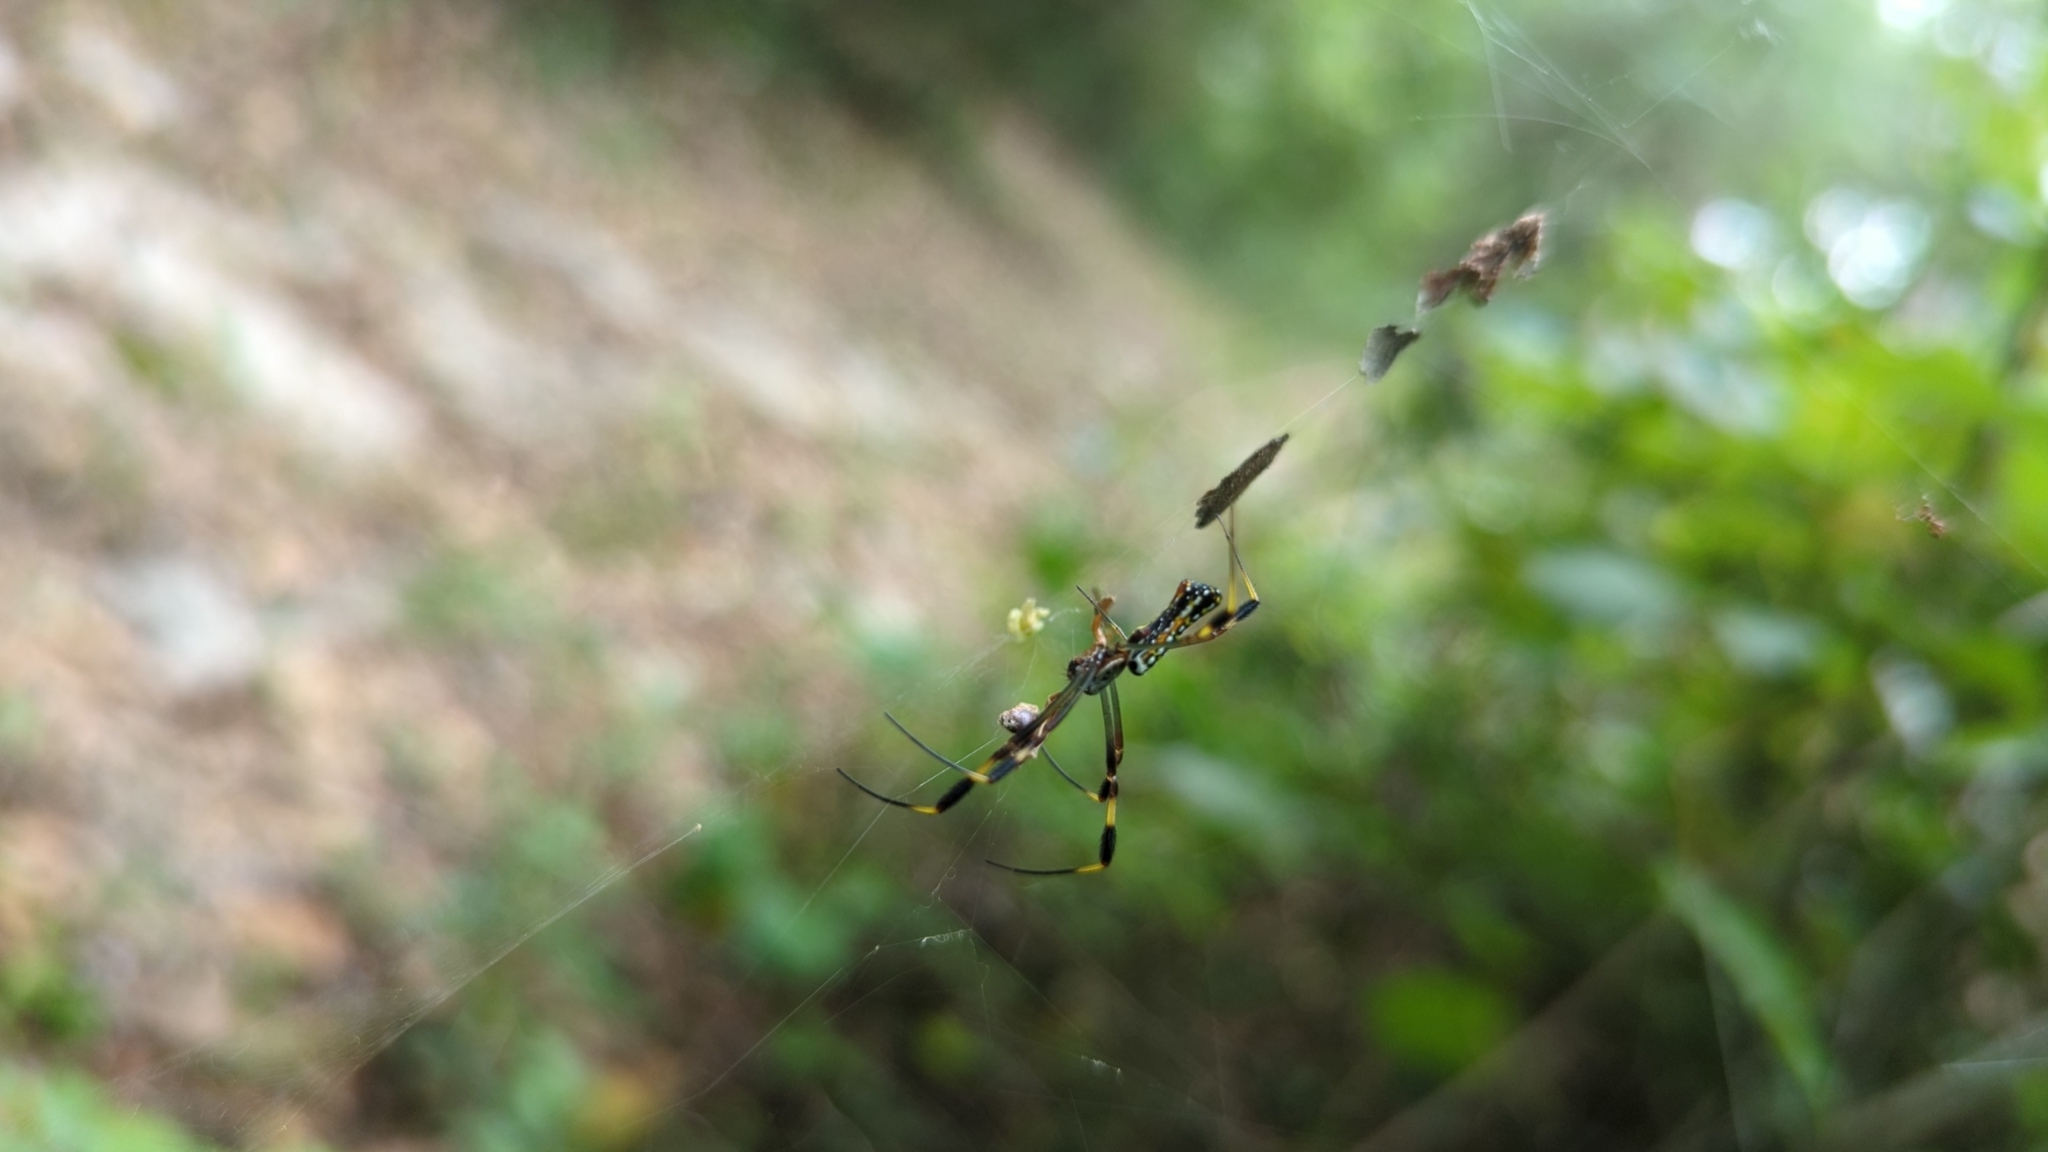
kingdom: Animalia
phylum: Arthropoda
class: Arachnida
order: Araneae
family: Araneidae
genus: Trichonephila
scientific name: Trichonephila clavipes
